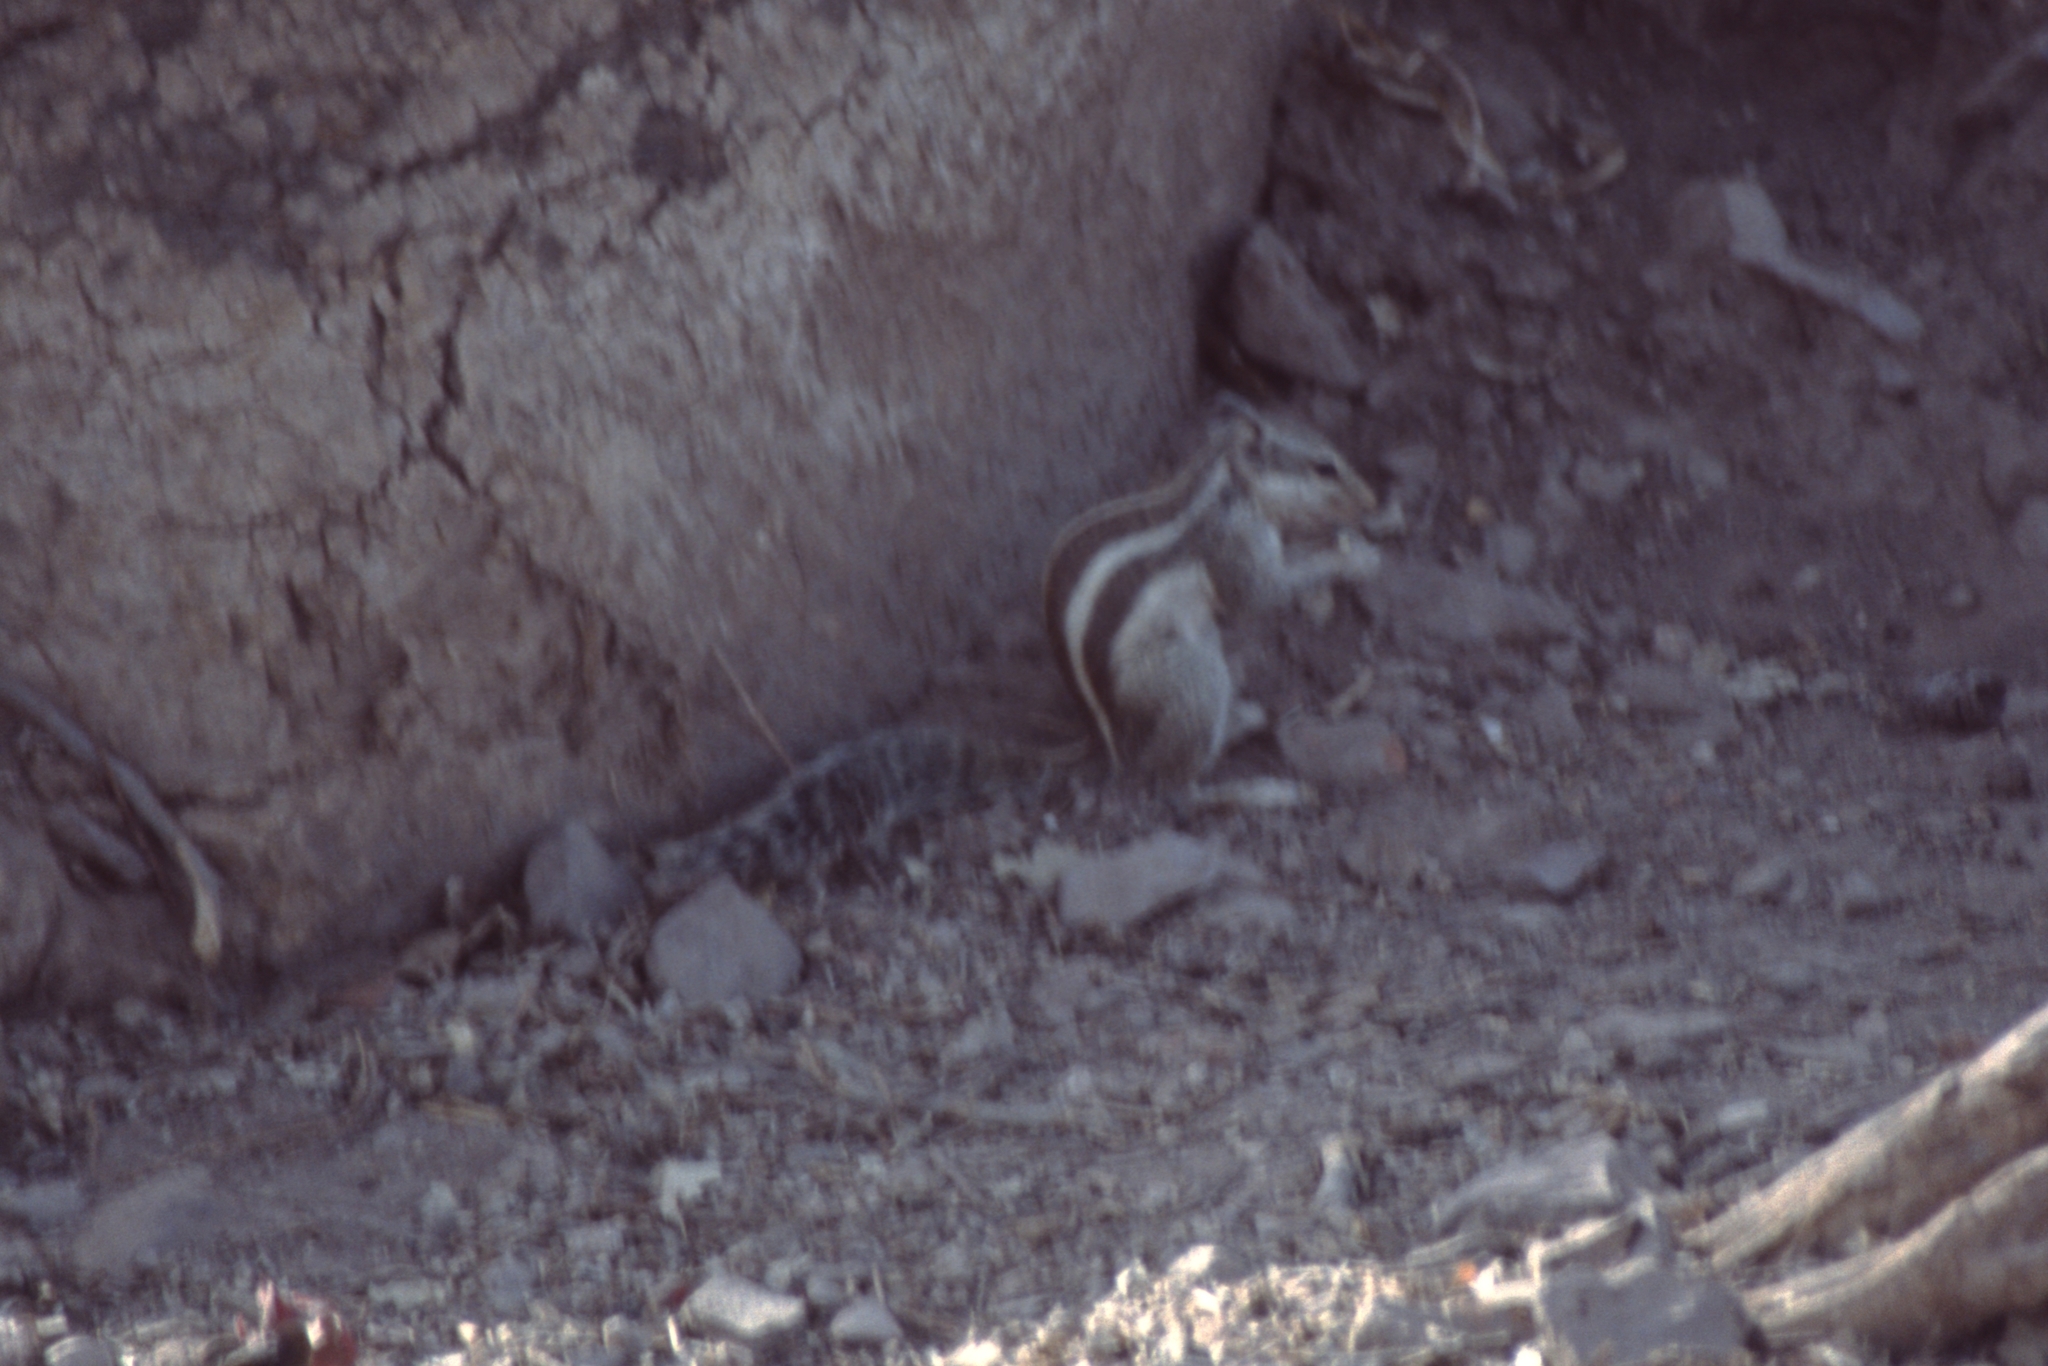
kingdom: Animalia
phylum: Chordata
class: Mammalia
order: Rodentia
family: Sciuridae
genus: Funambulus
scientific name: Funambulus pennantii
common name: Northern palm squirrel
